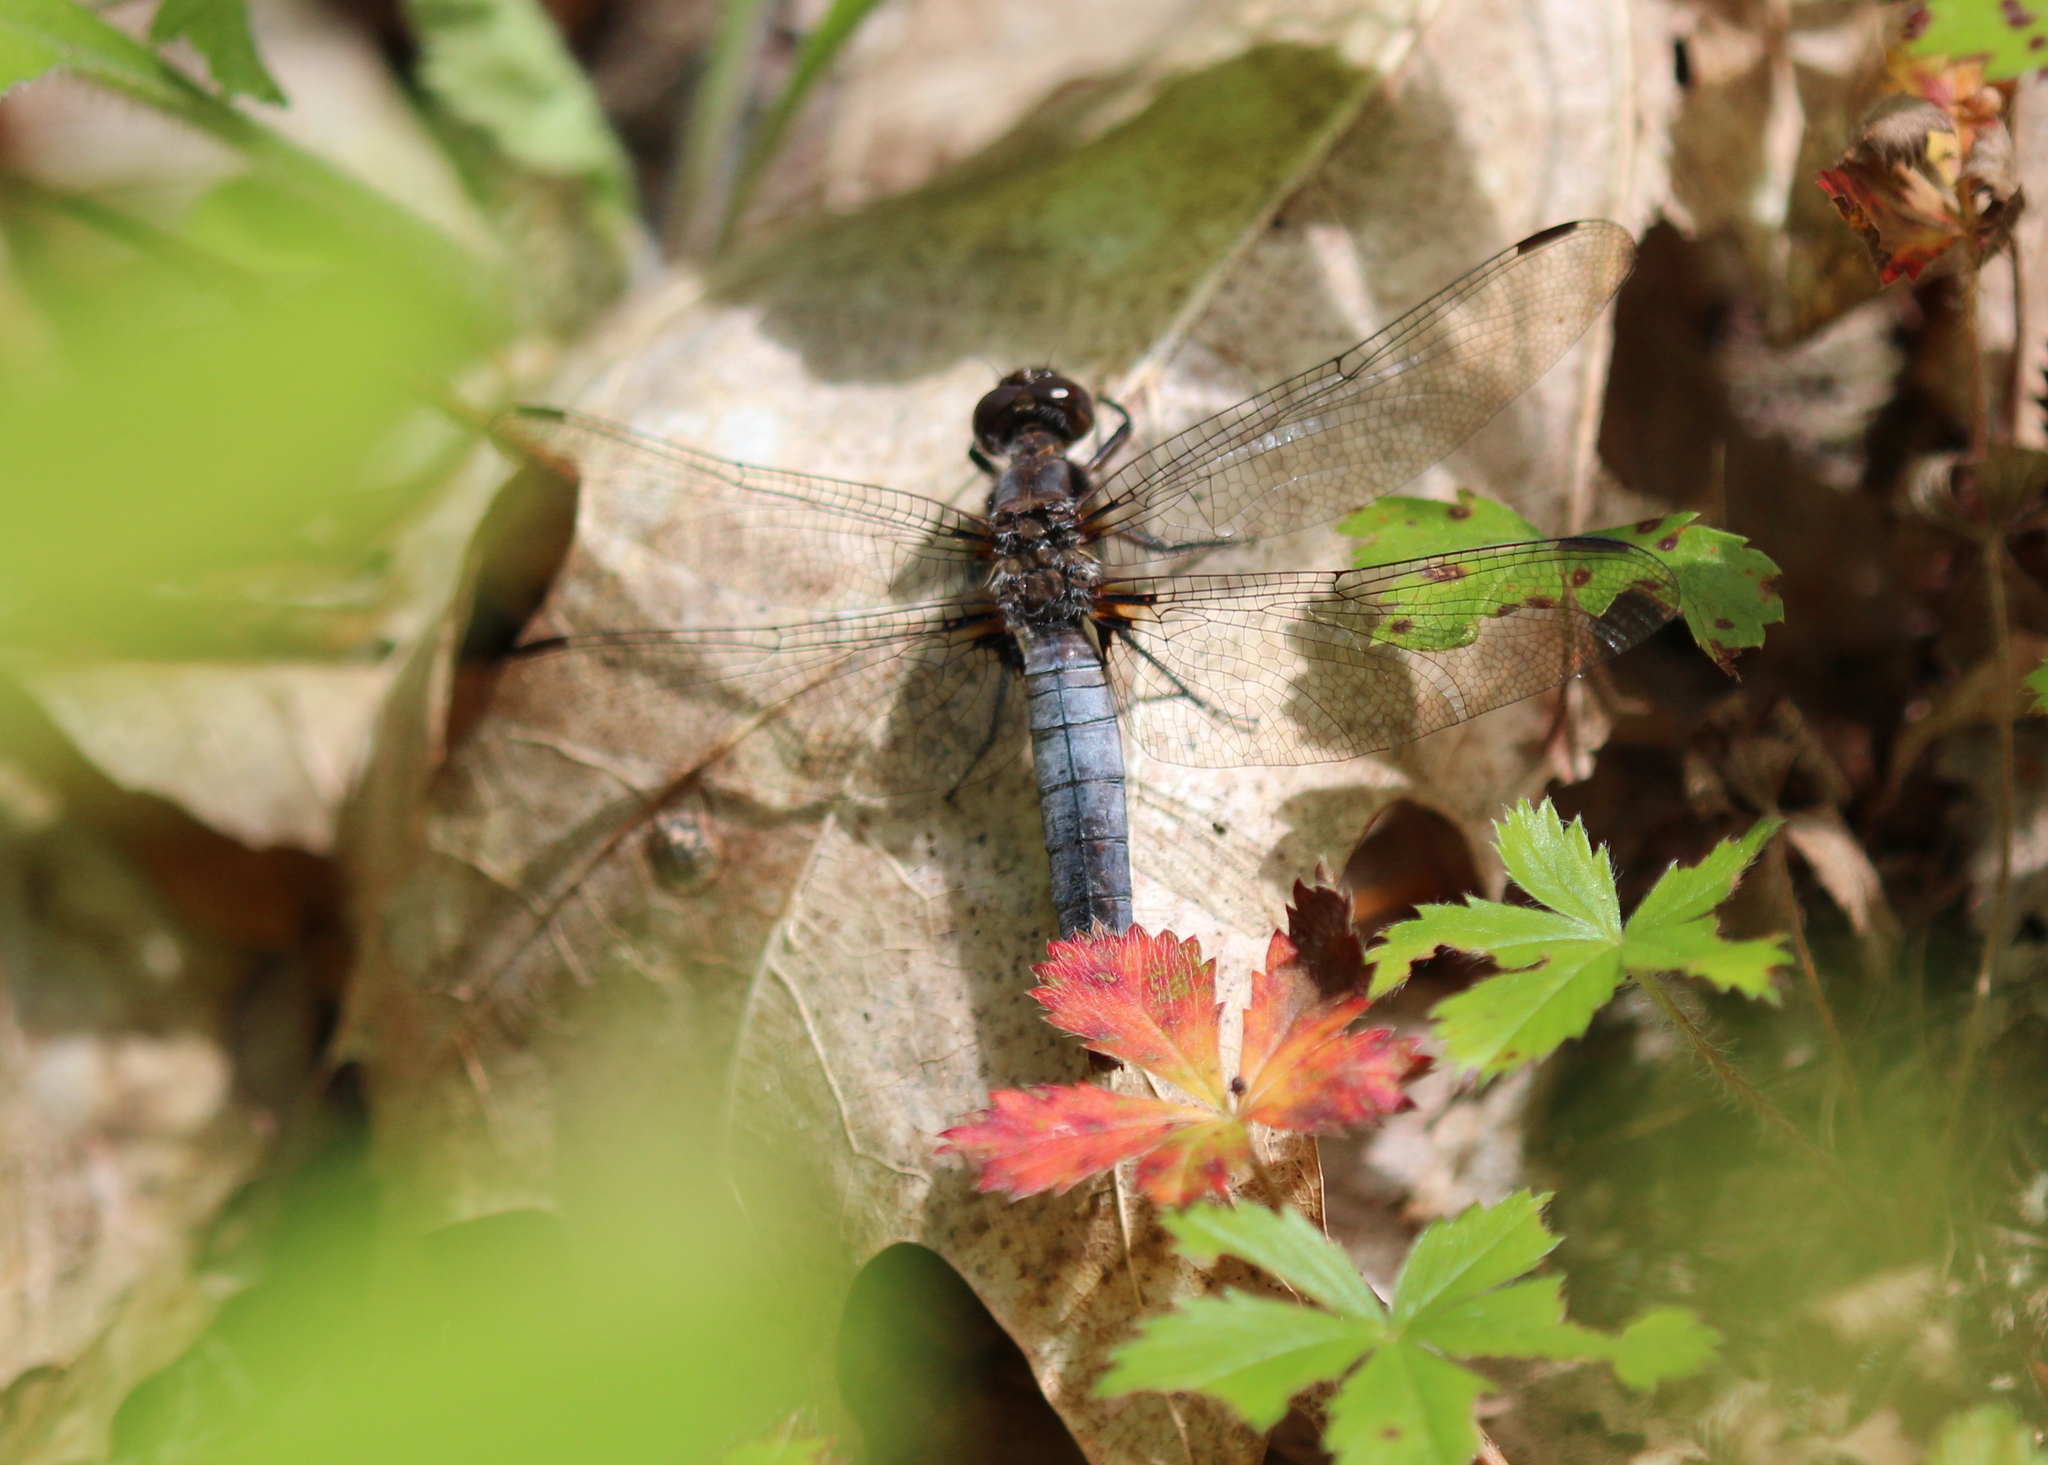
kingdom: Animalia
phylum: Arthropoda
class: Insecta
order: Odonata
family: Libellulidae
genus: Ladona
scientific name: Ladona julia
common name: Chalk-fronted corporal
